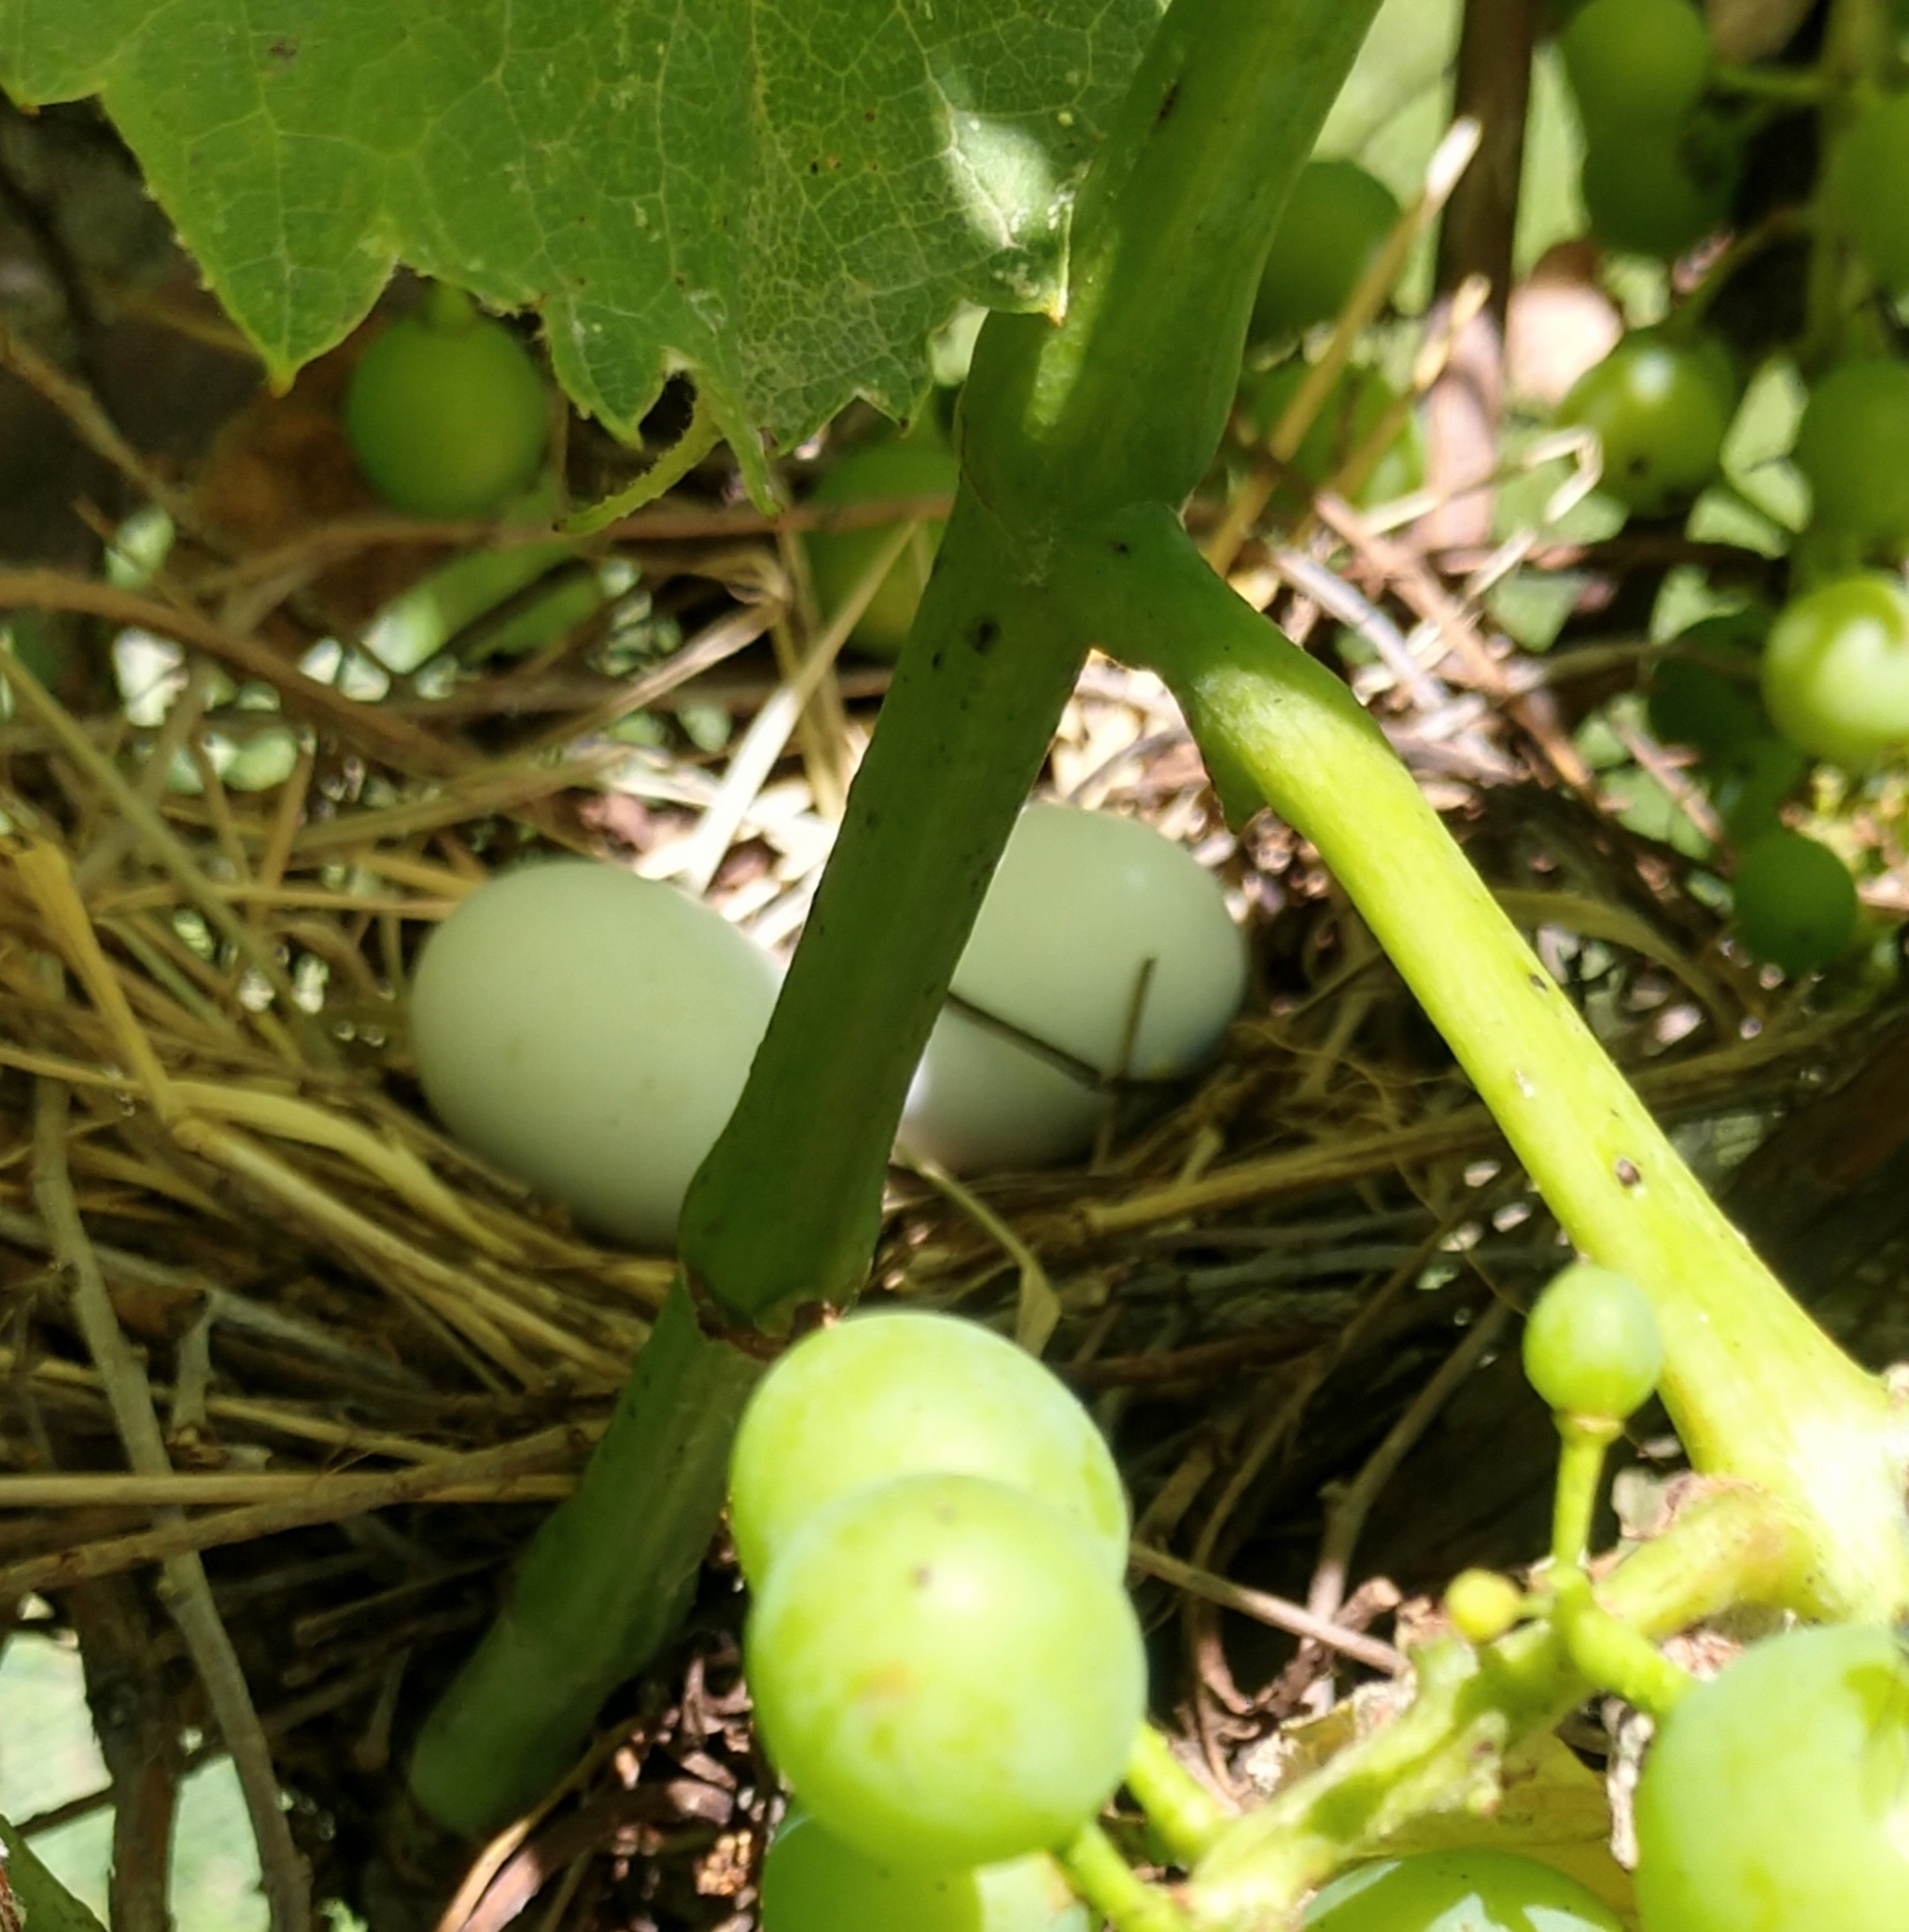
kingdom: Animalia
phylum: Chordata
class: Aves
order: Columbiformes
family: Columbidae
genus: Zenaida
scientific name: Zenaida macroura
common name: Mourning dove
